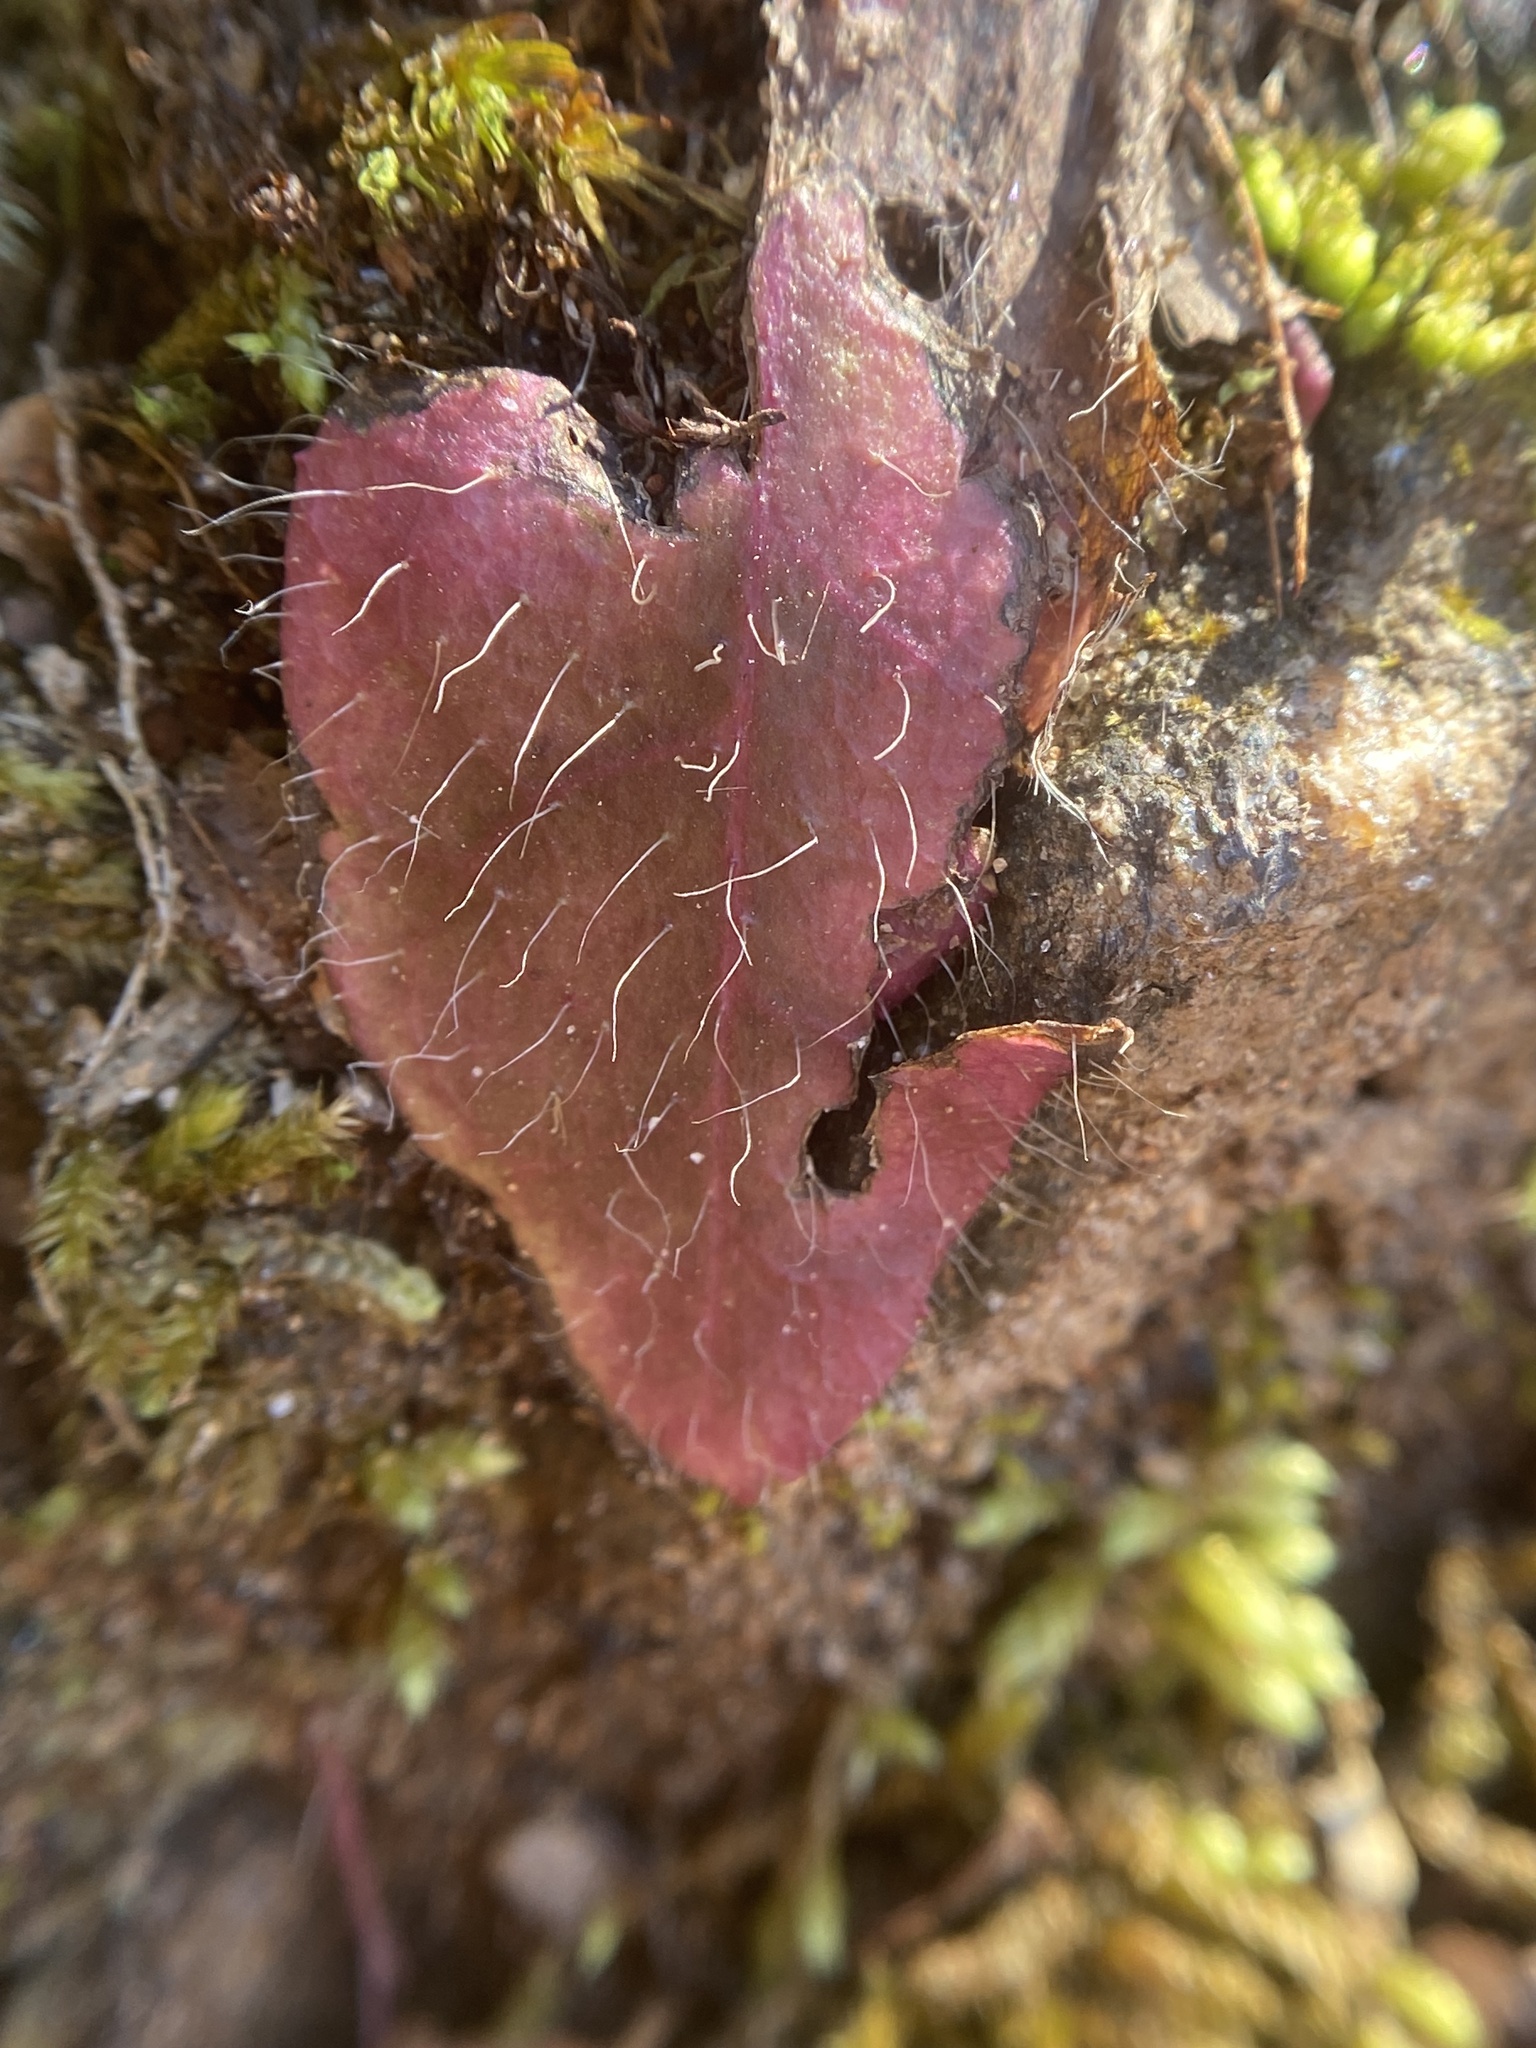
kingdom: Plantae
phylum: Tracheophyta
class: Magnoliopsida
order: Asterales
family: Asteraceae
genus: Hieracium
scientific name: Hieracium gronovii
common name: Beaked hawkweed
